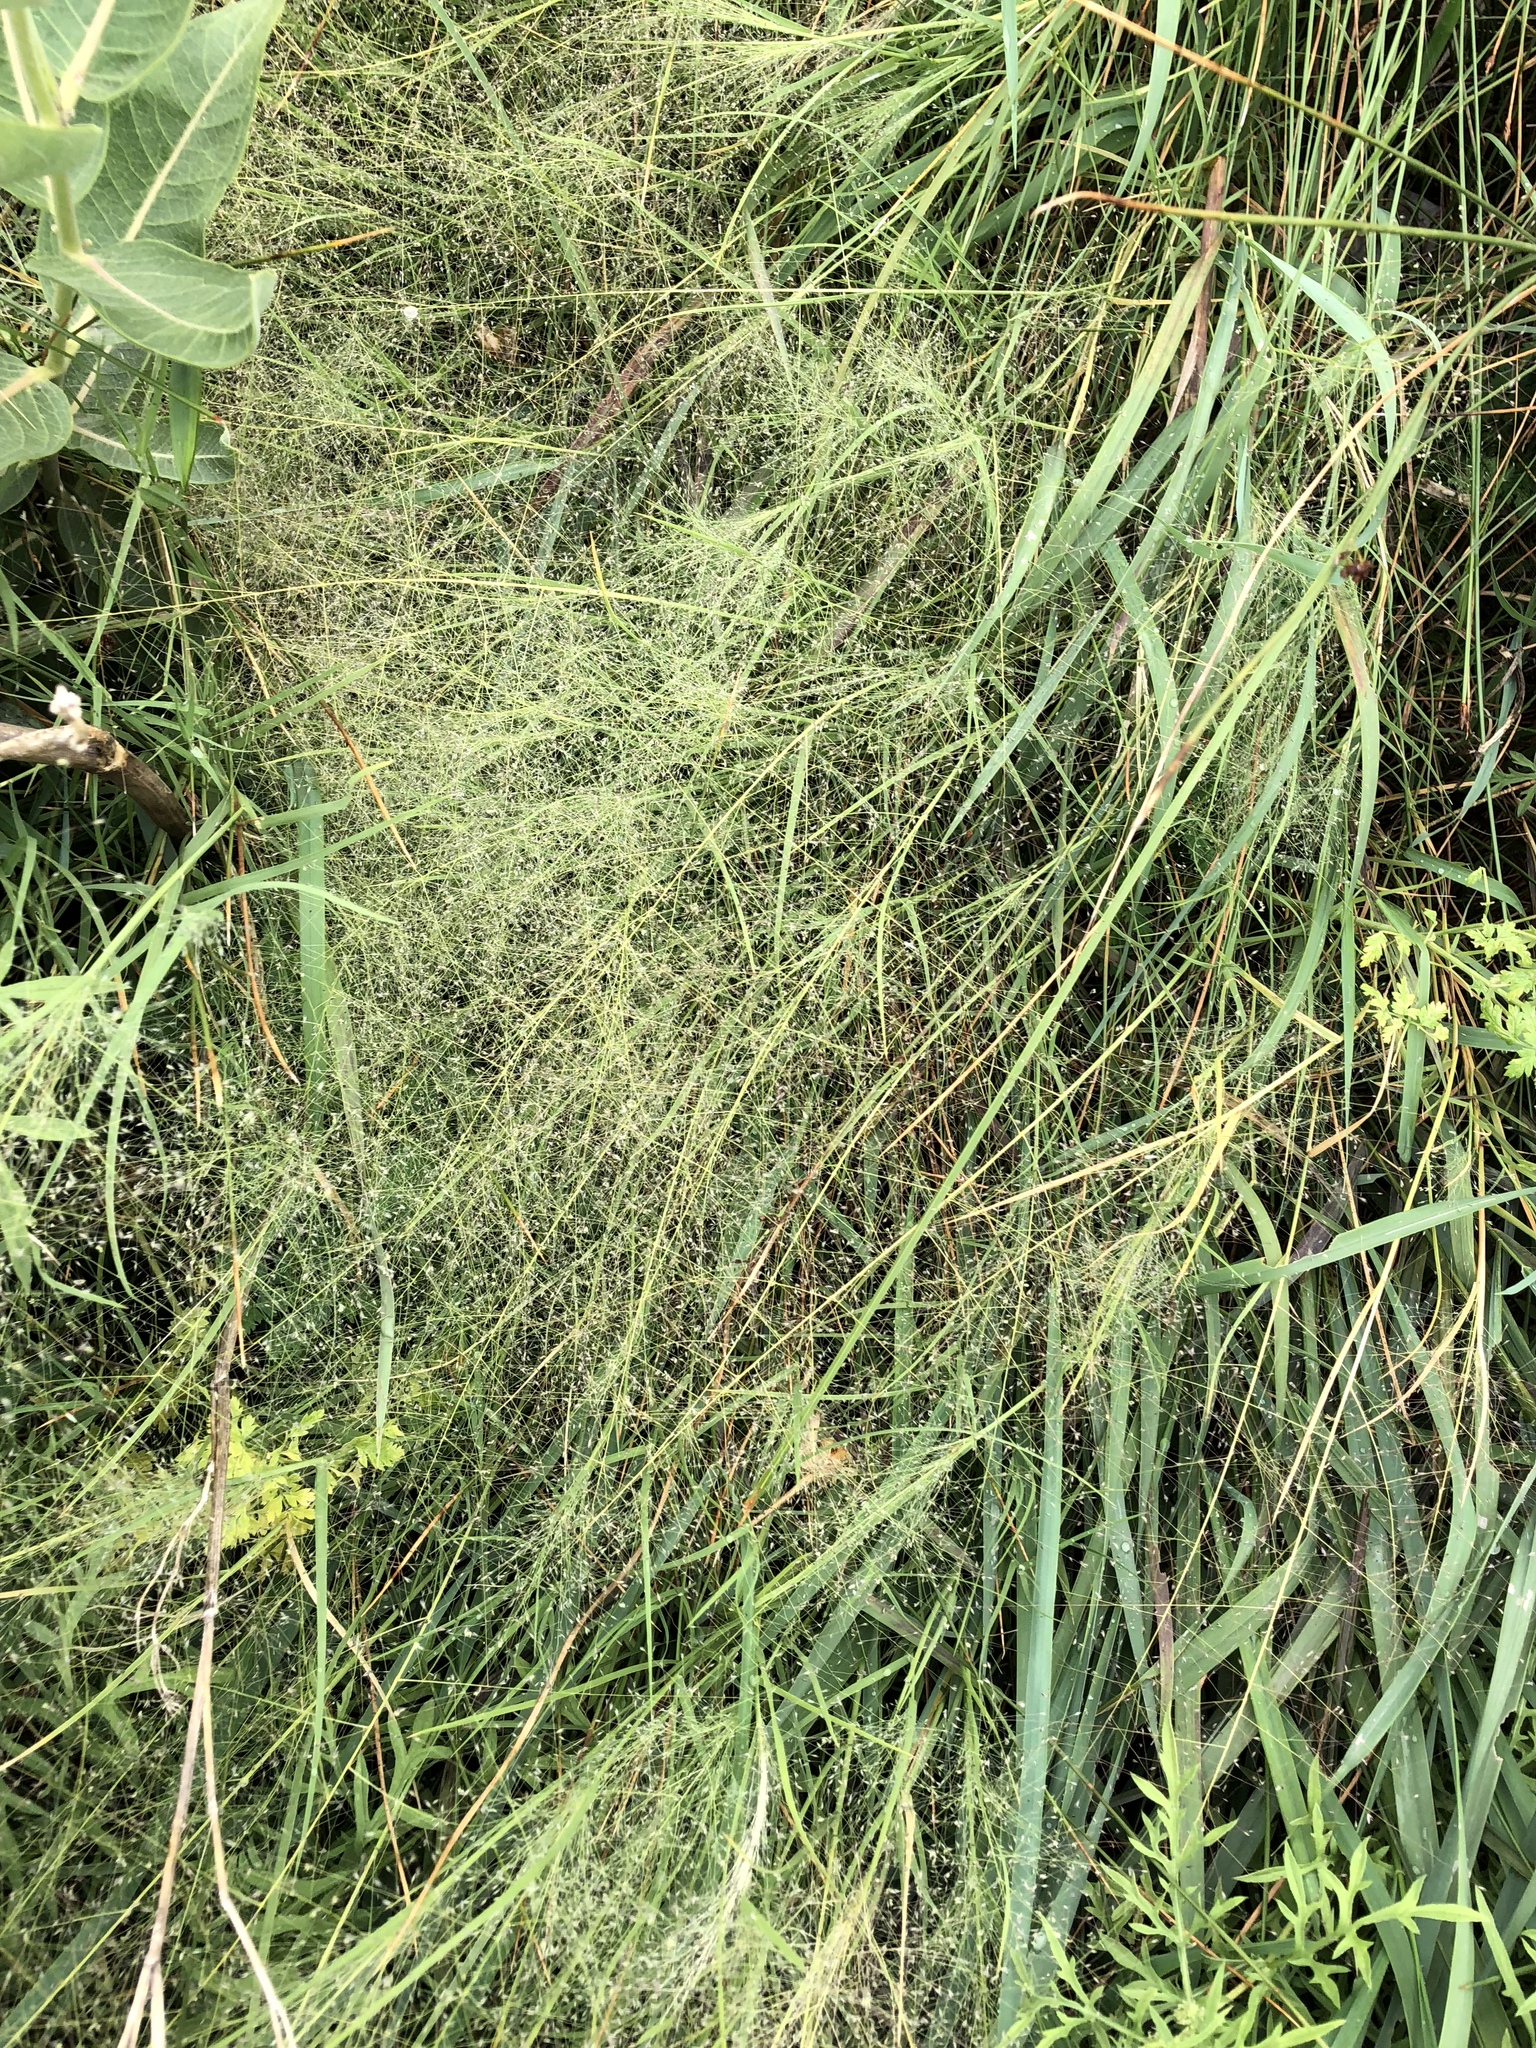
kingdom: Plantae
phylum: Tracheophyta
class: Liliopsida
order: Poales
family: Poaceae
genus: Muhlenbergia
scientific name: Muhlenbergia asperifolia
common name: Alkali muhly
